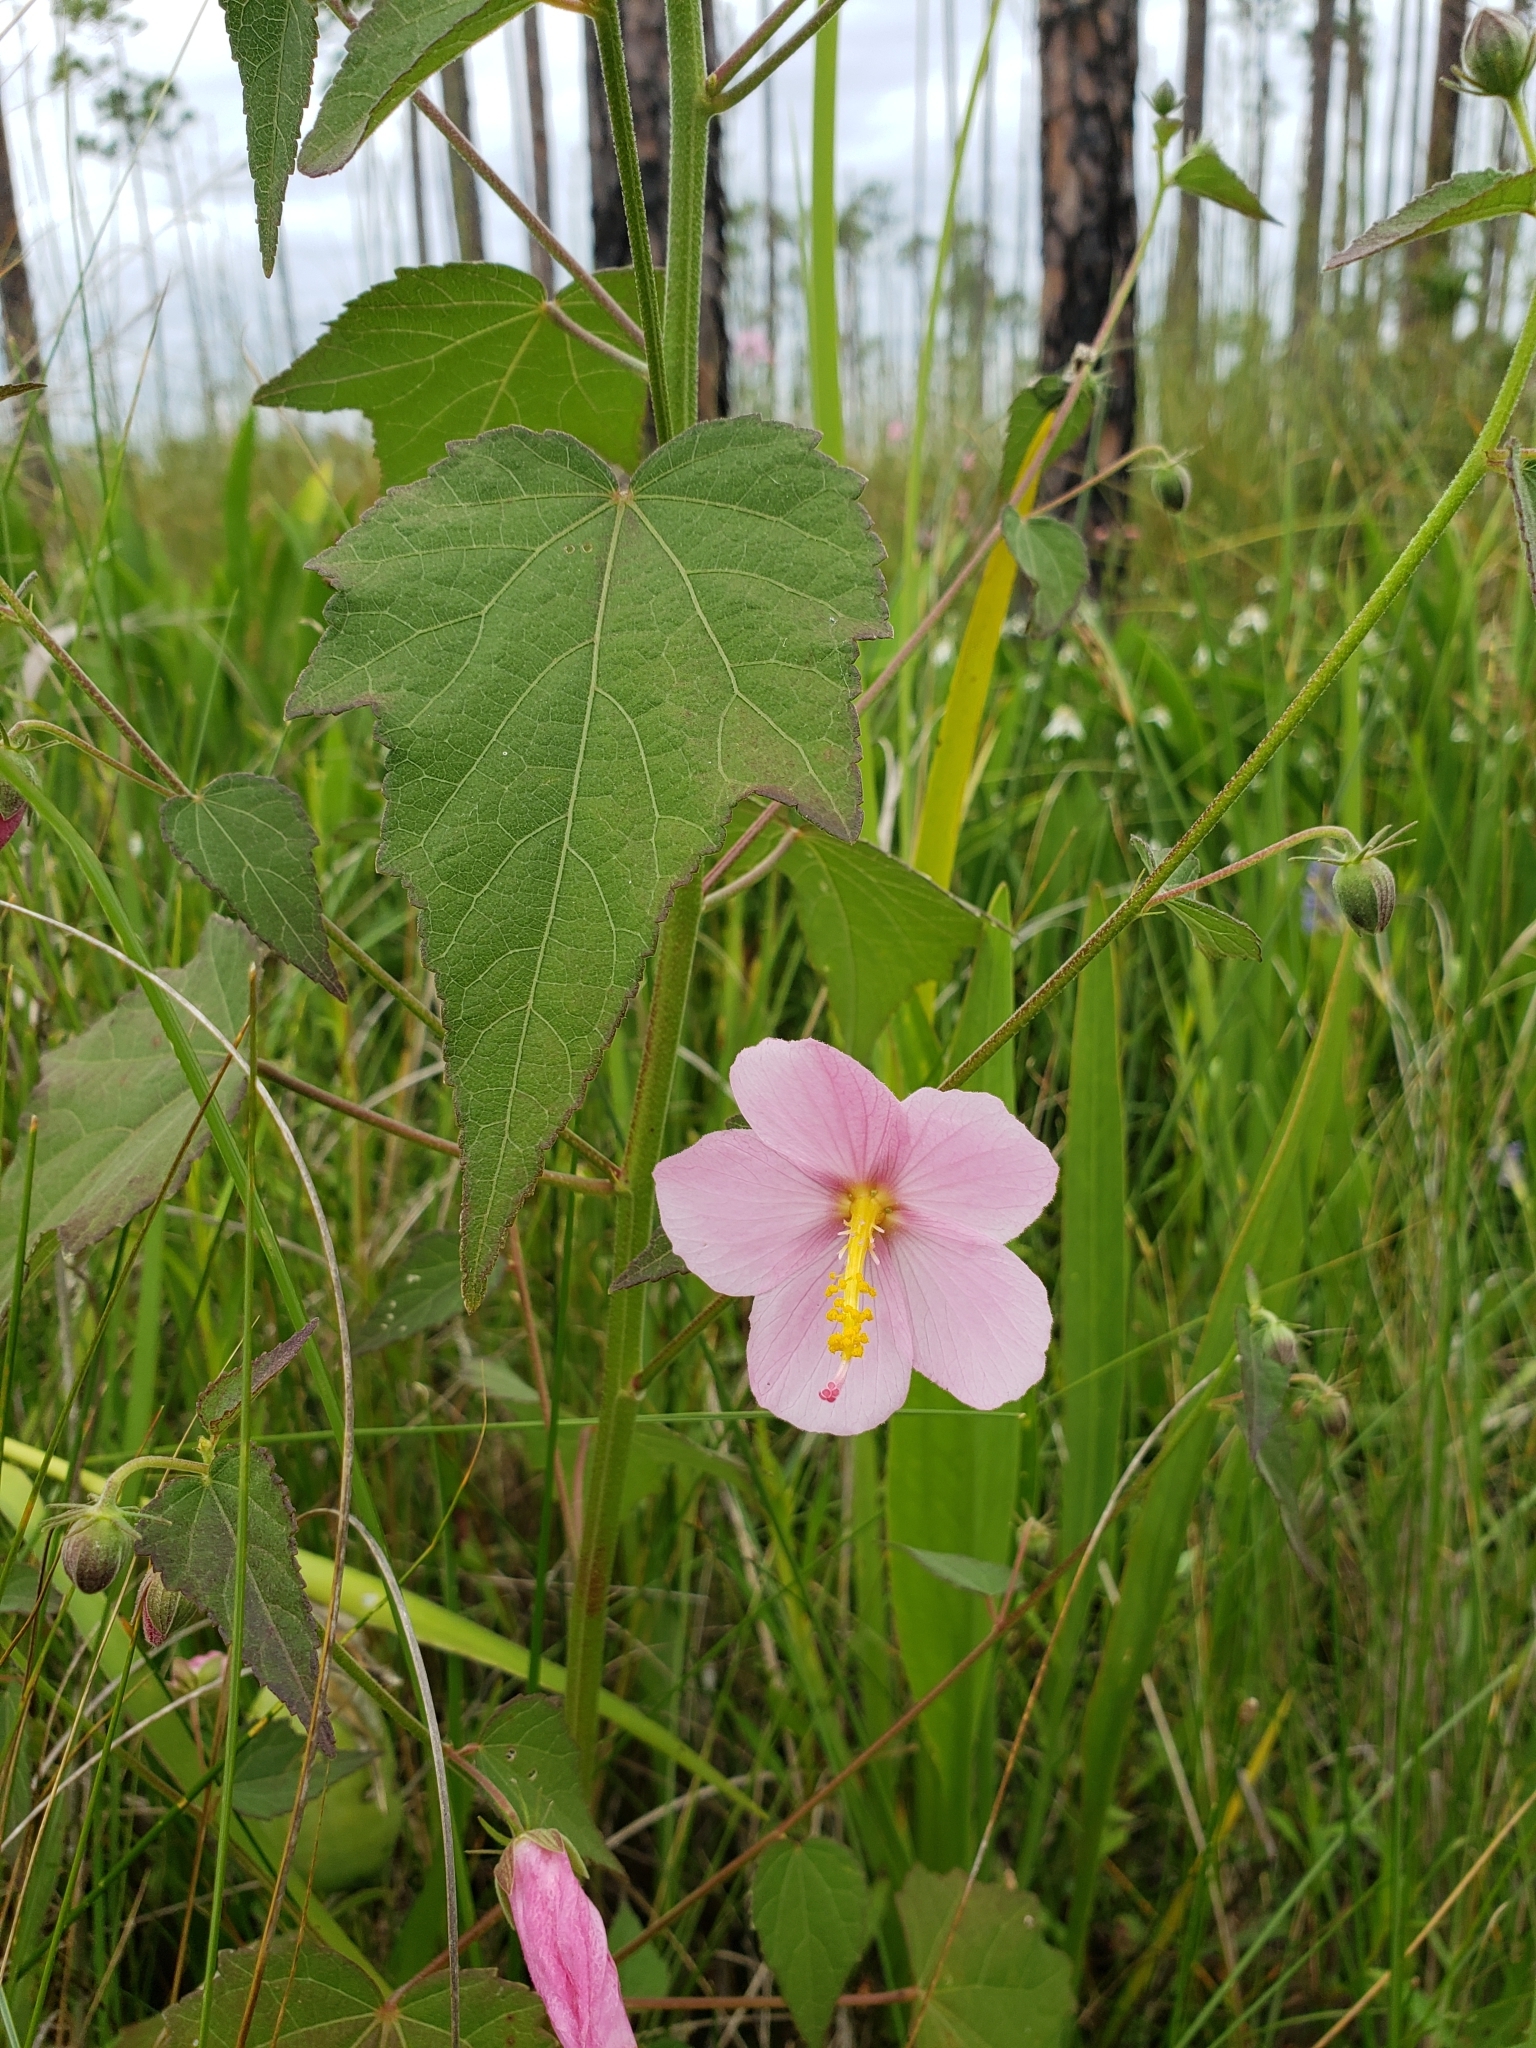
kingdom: Plantae
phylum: Tracheophyta
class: Magnoliopsida
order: Malvales
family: Malvaceae
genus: Kosteletzkya
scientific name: Kosteletzkya pentacarpos
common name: Virginia saltmarsh mallow
